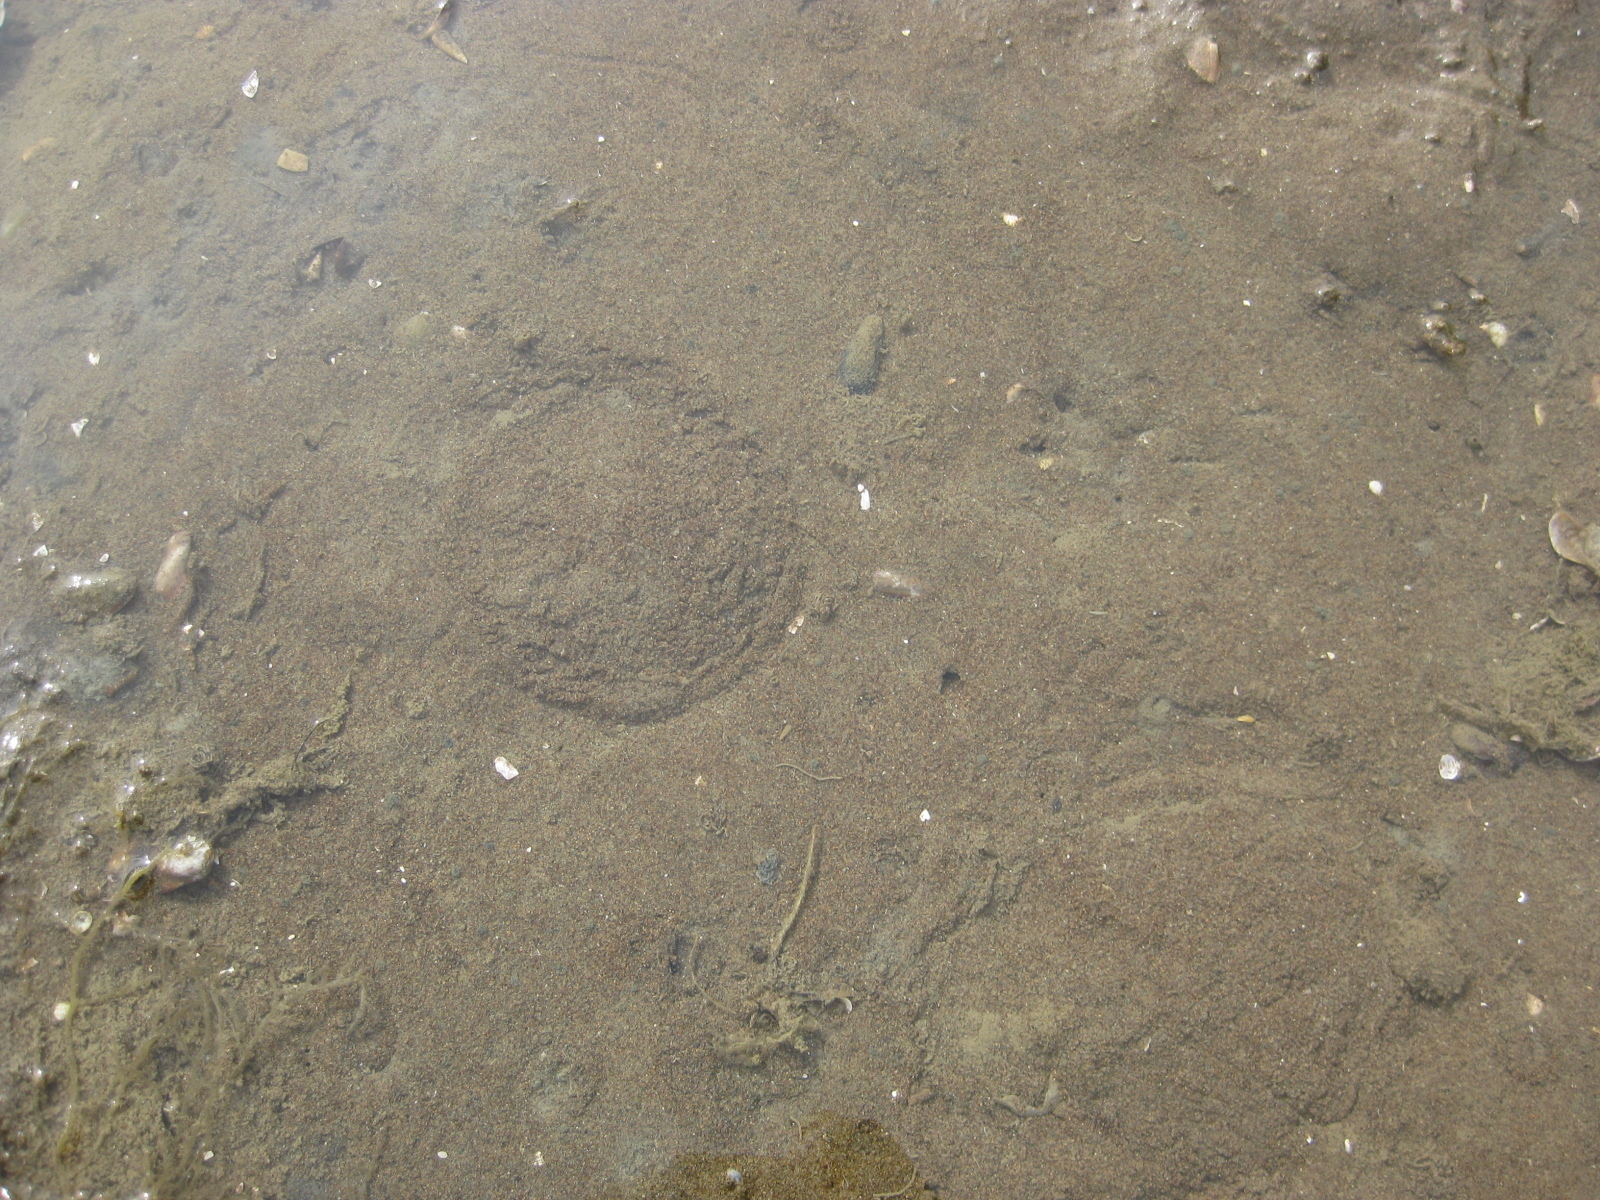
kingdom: Animalia
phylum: Echinodermata
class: Echinoidea
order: Clypeasteroida
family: Clypeasteridae
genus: Fellaster
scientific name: Fellaster zelandiae
